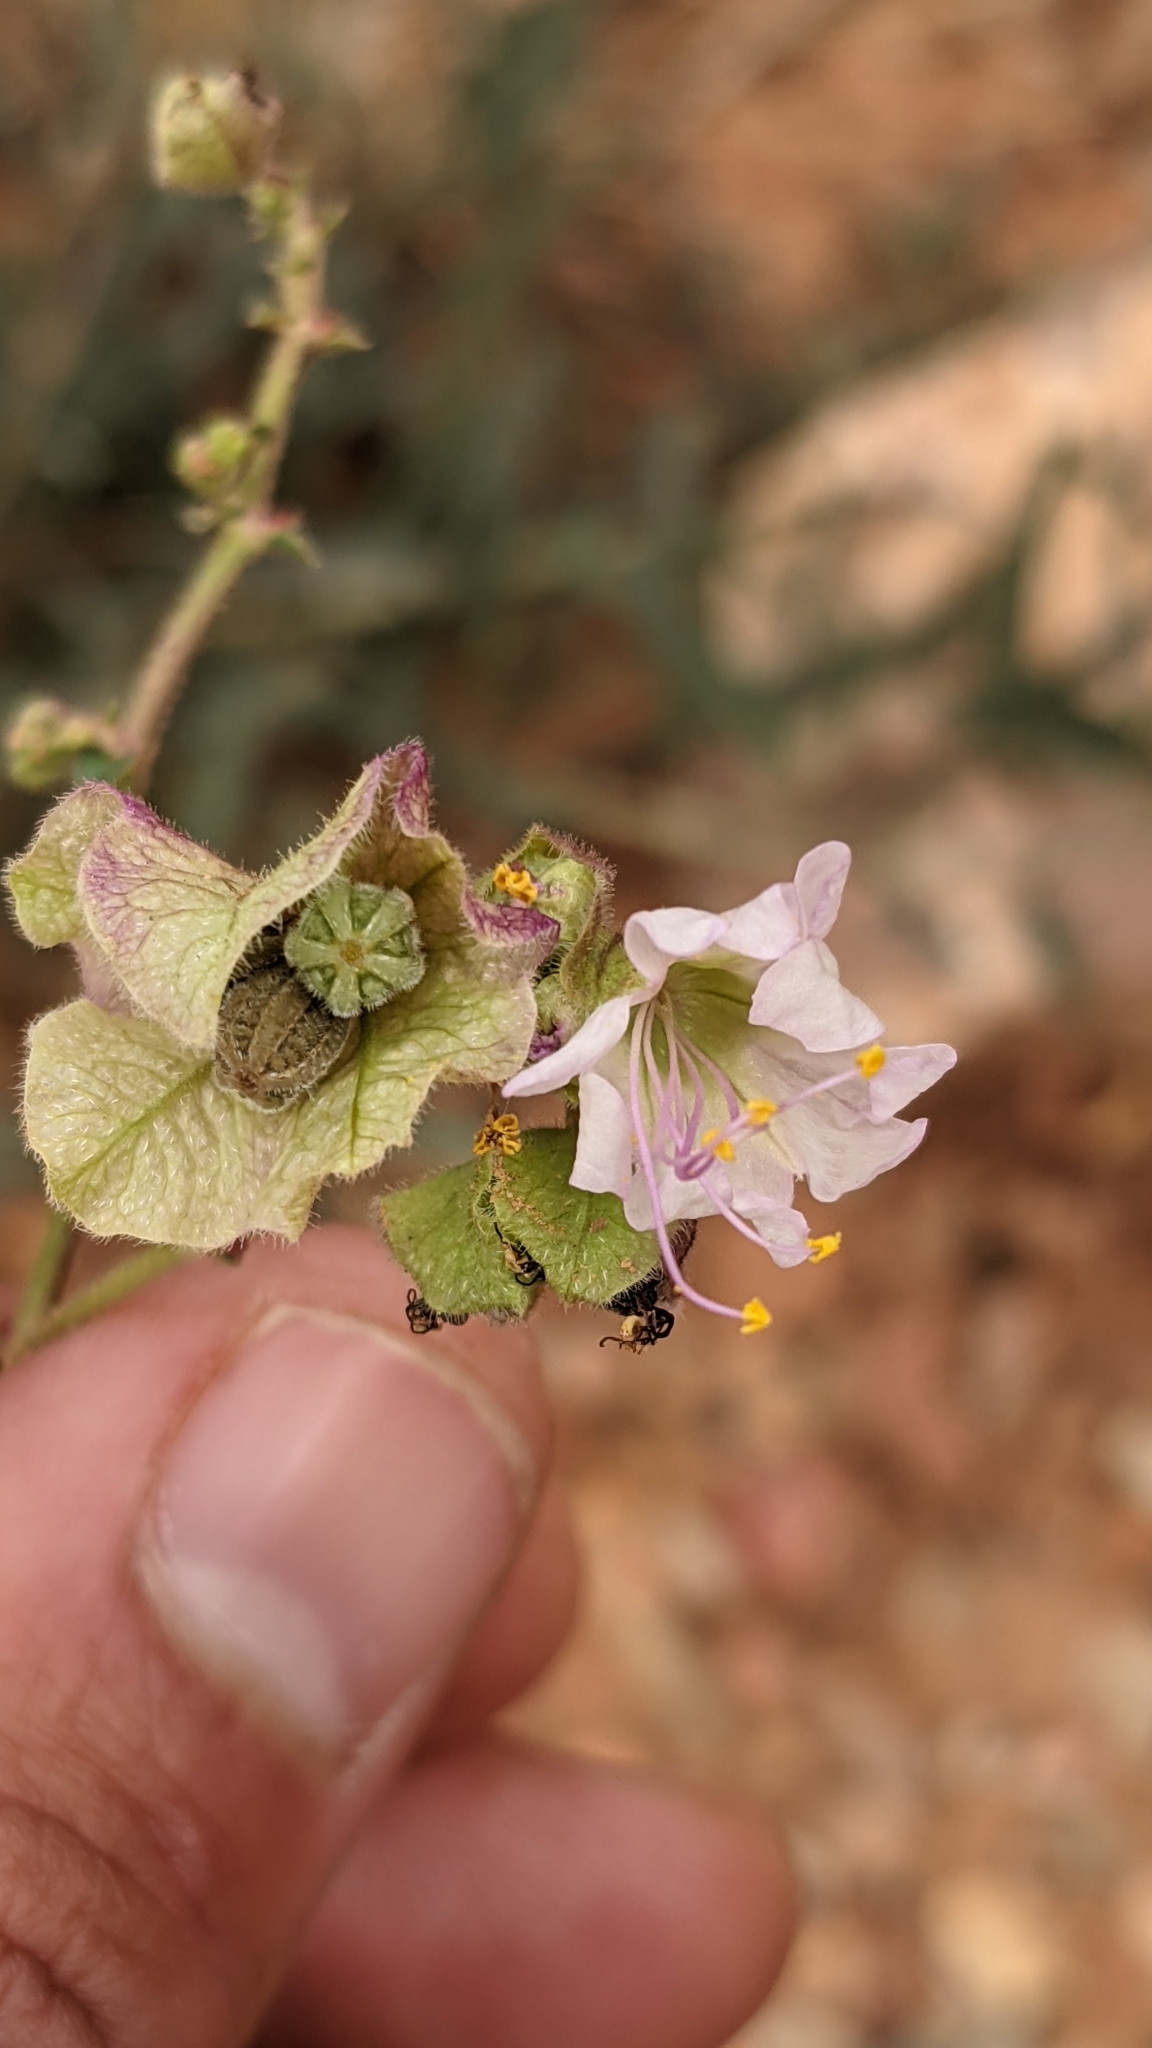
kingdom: Plantae
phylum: Tracheophyta
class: Magnoliopsida
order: Caryophyllales
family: Nyctaginaceae
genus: Mirabilis
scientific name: Mirabilis linearis
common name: Linear-leaved four-o'clock
